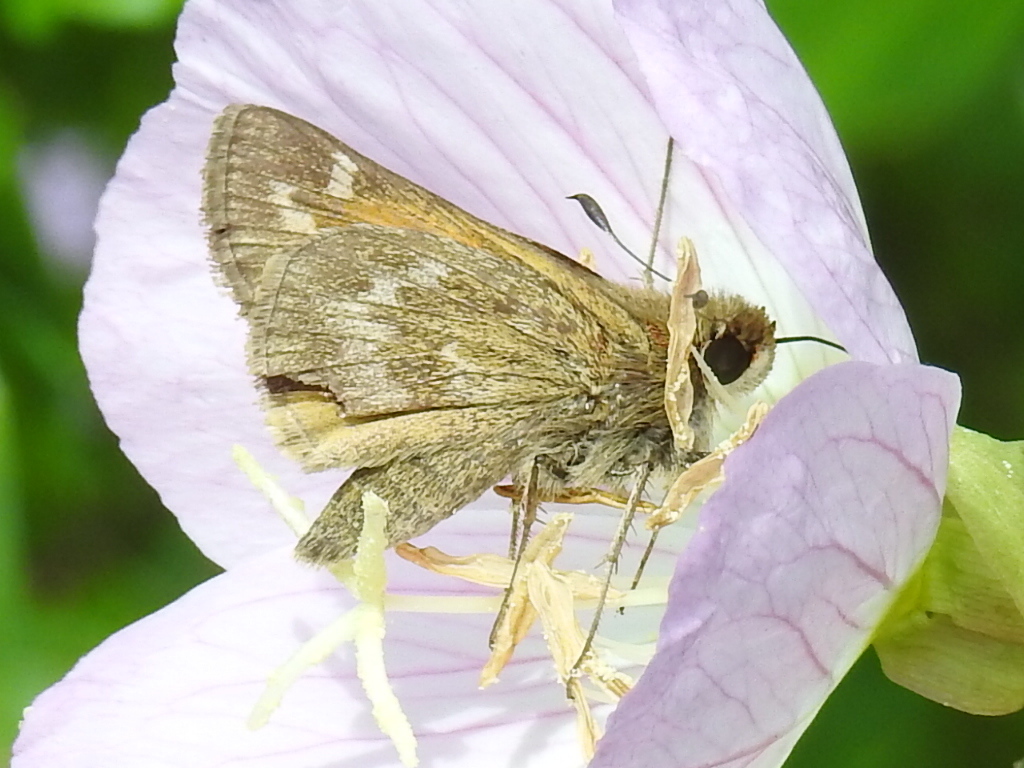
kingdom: Animalia
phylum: Arthropoda
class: Insecta
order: Lepidoptera
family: Hesperiidae
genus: Atalopedes
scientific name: Atalopedes
